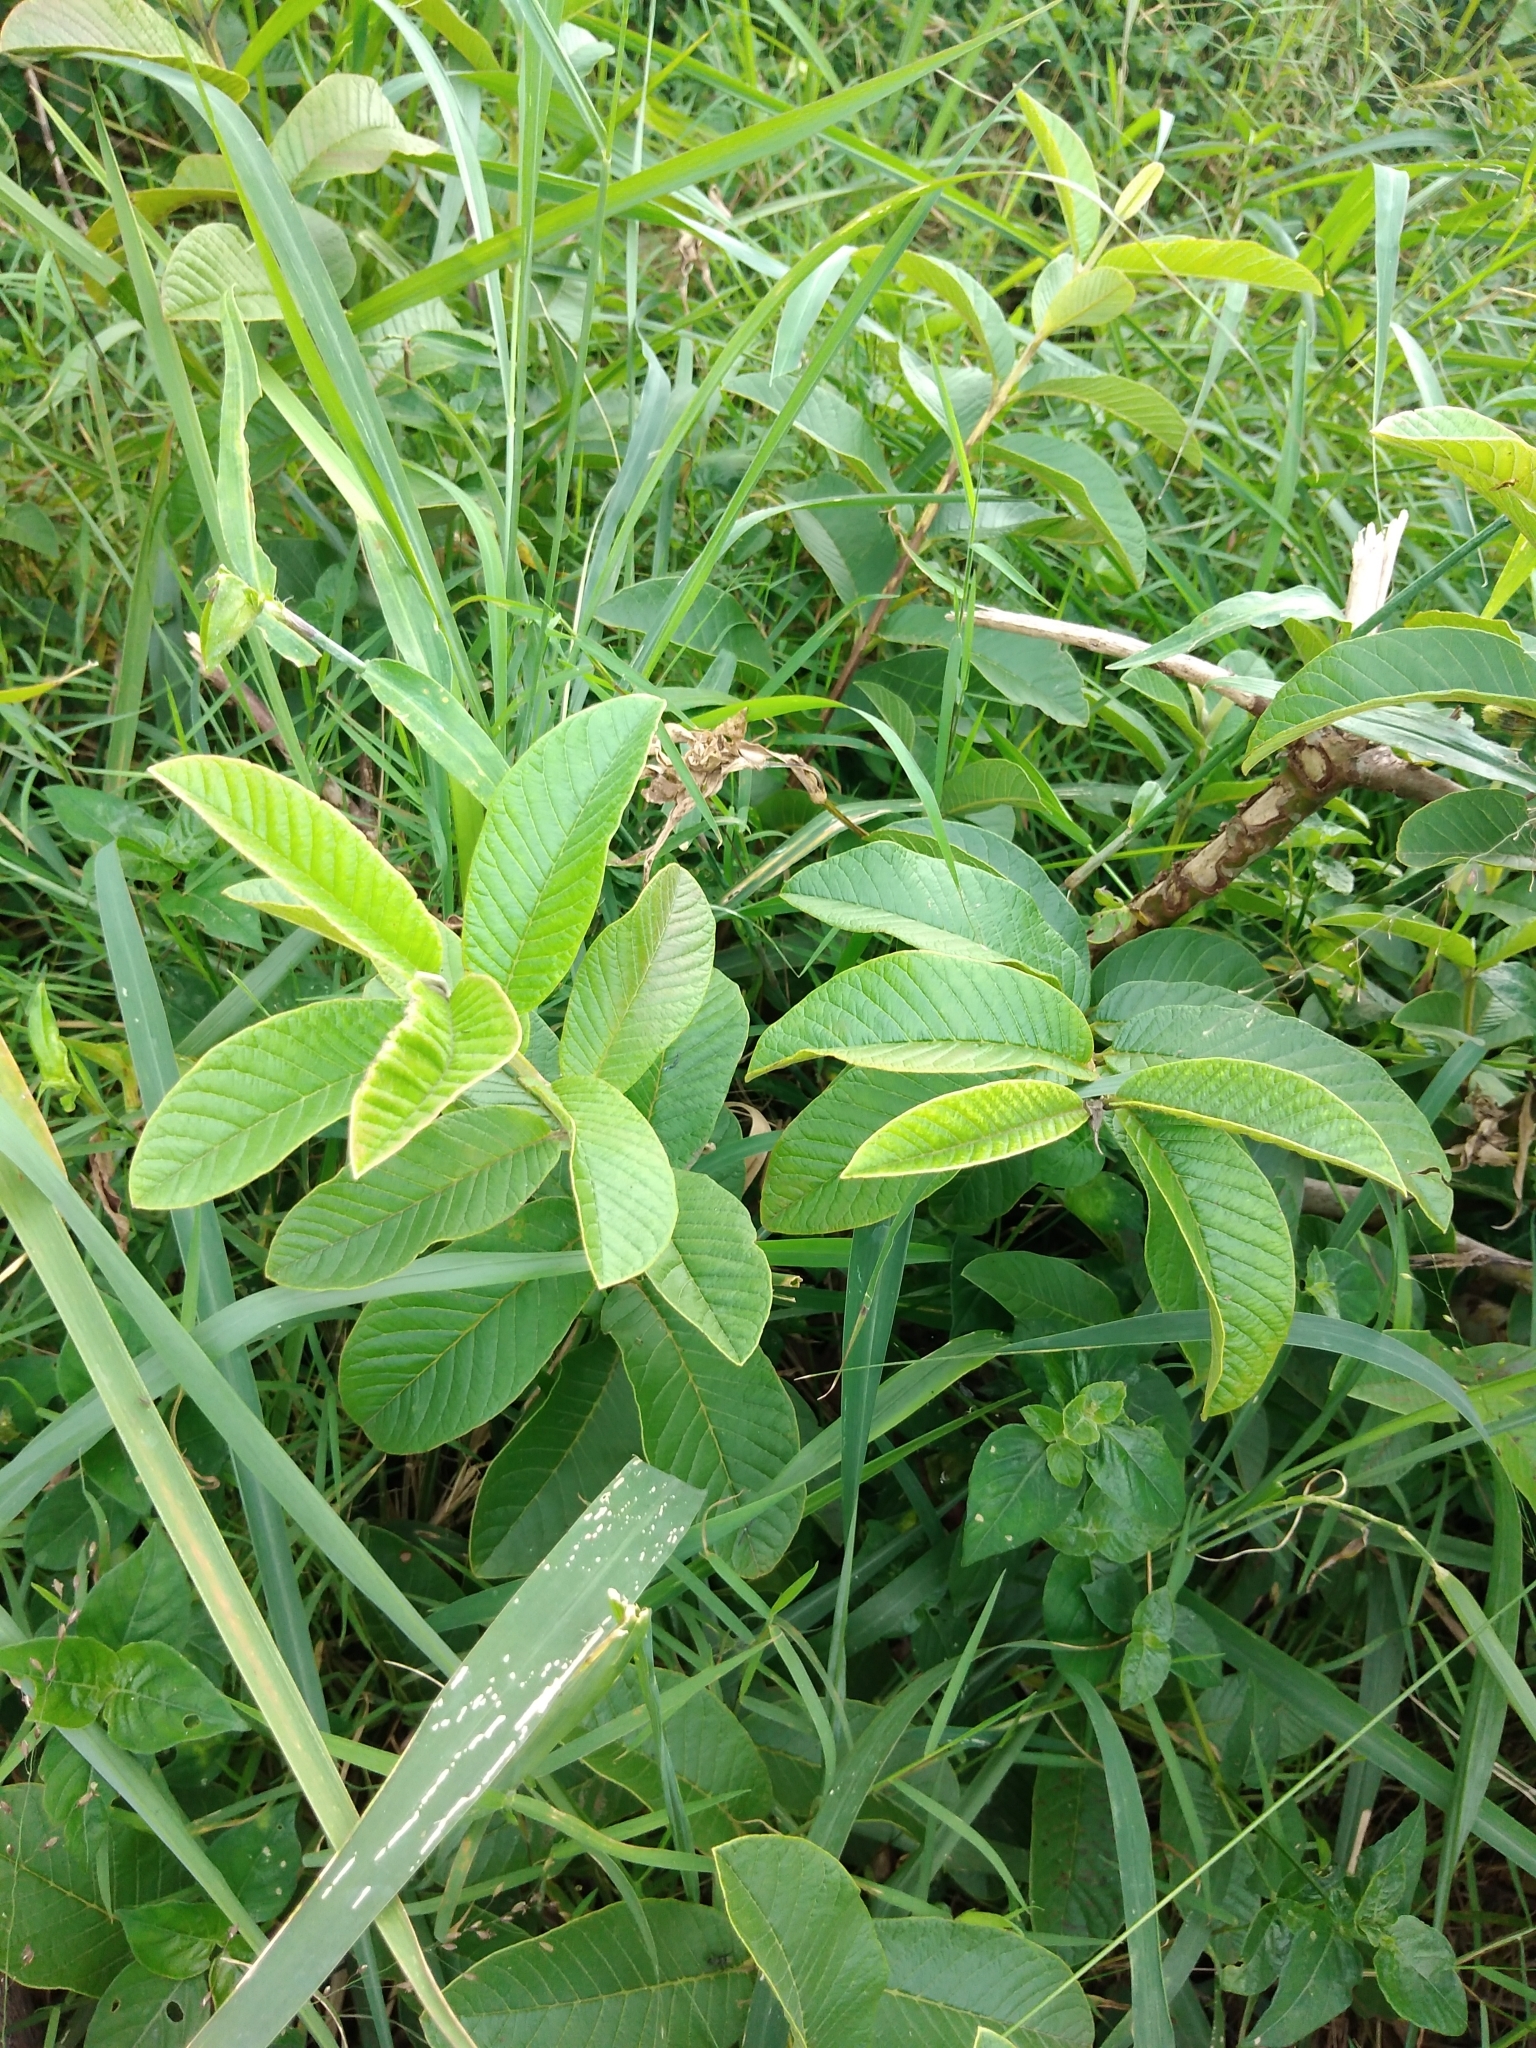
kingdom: Plantae
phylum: Tracheophyta
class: Magnoliopsida
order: Myrtales
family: Myrtaceae
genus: Psidium
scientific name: Psidium guajava
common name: Guava
